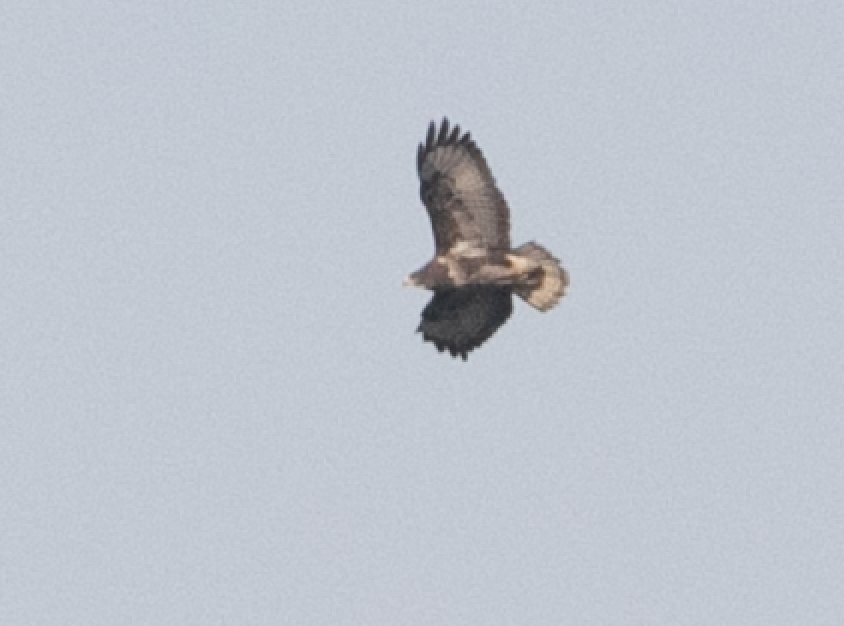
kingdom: Animalia
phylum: Chordata
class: Aves
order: Accipitriformes
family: Accipitridae
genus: Buteo
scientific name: Buteo buteo
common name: Common buzzard
